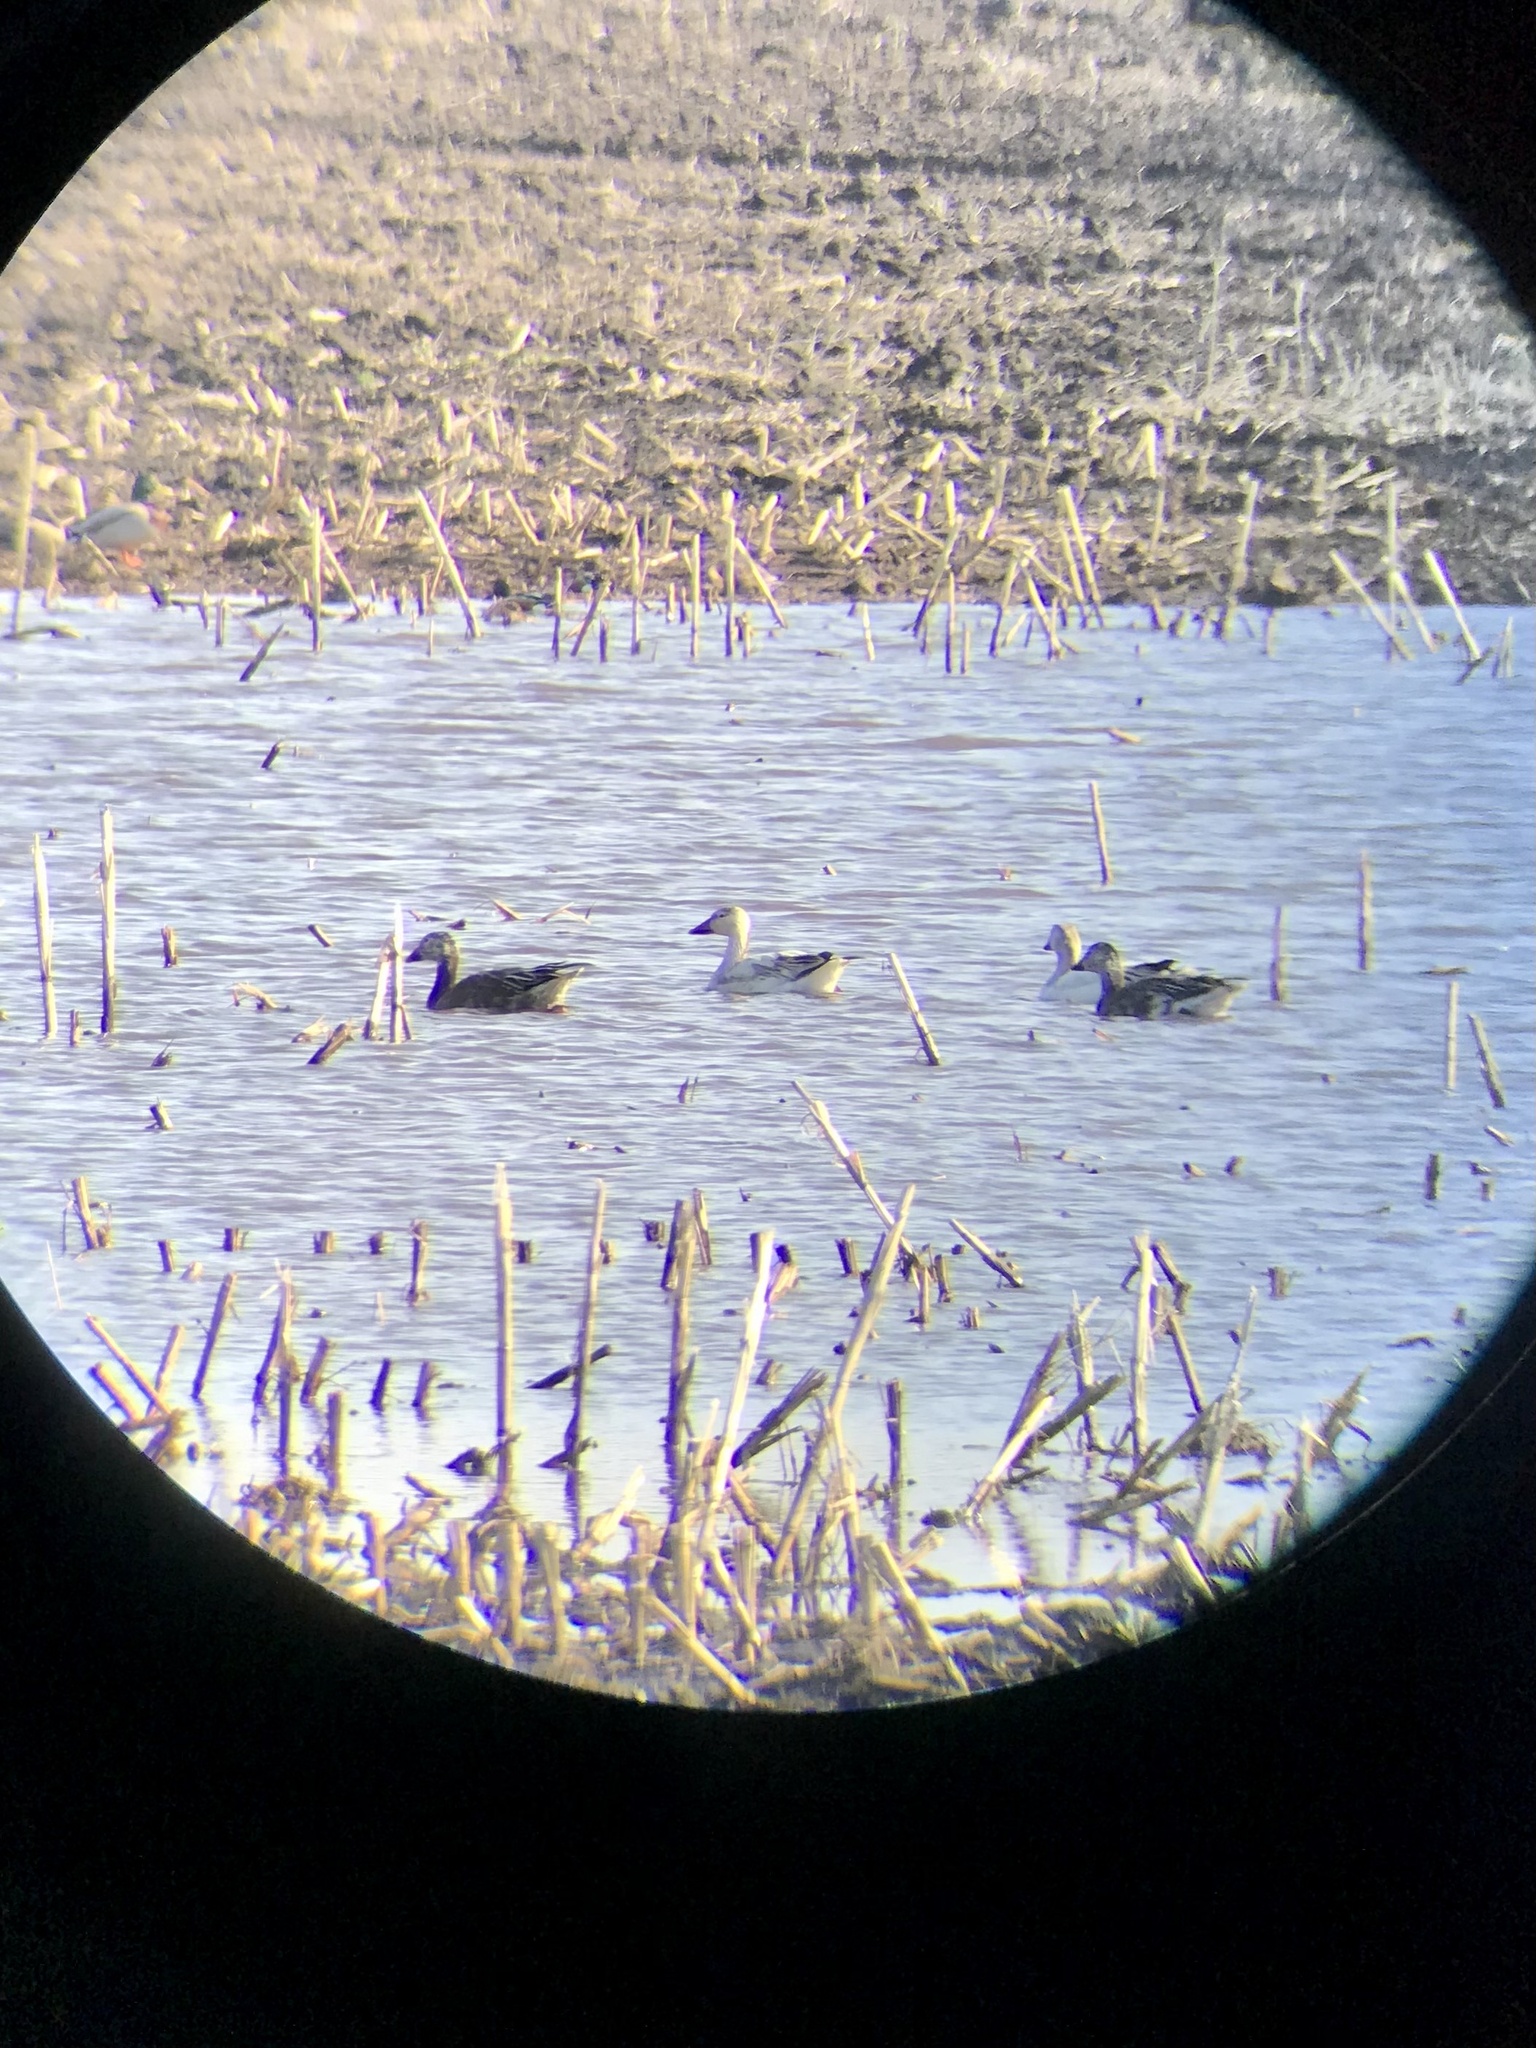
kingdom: Animalia
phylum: Chordata
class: Aves
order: Anseriformes
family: Anatidae
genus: Anser
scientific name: Anser caerulescens
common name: Snow goose
